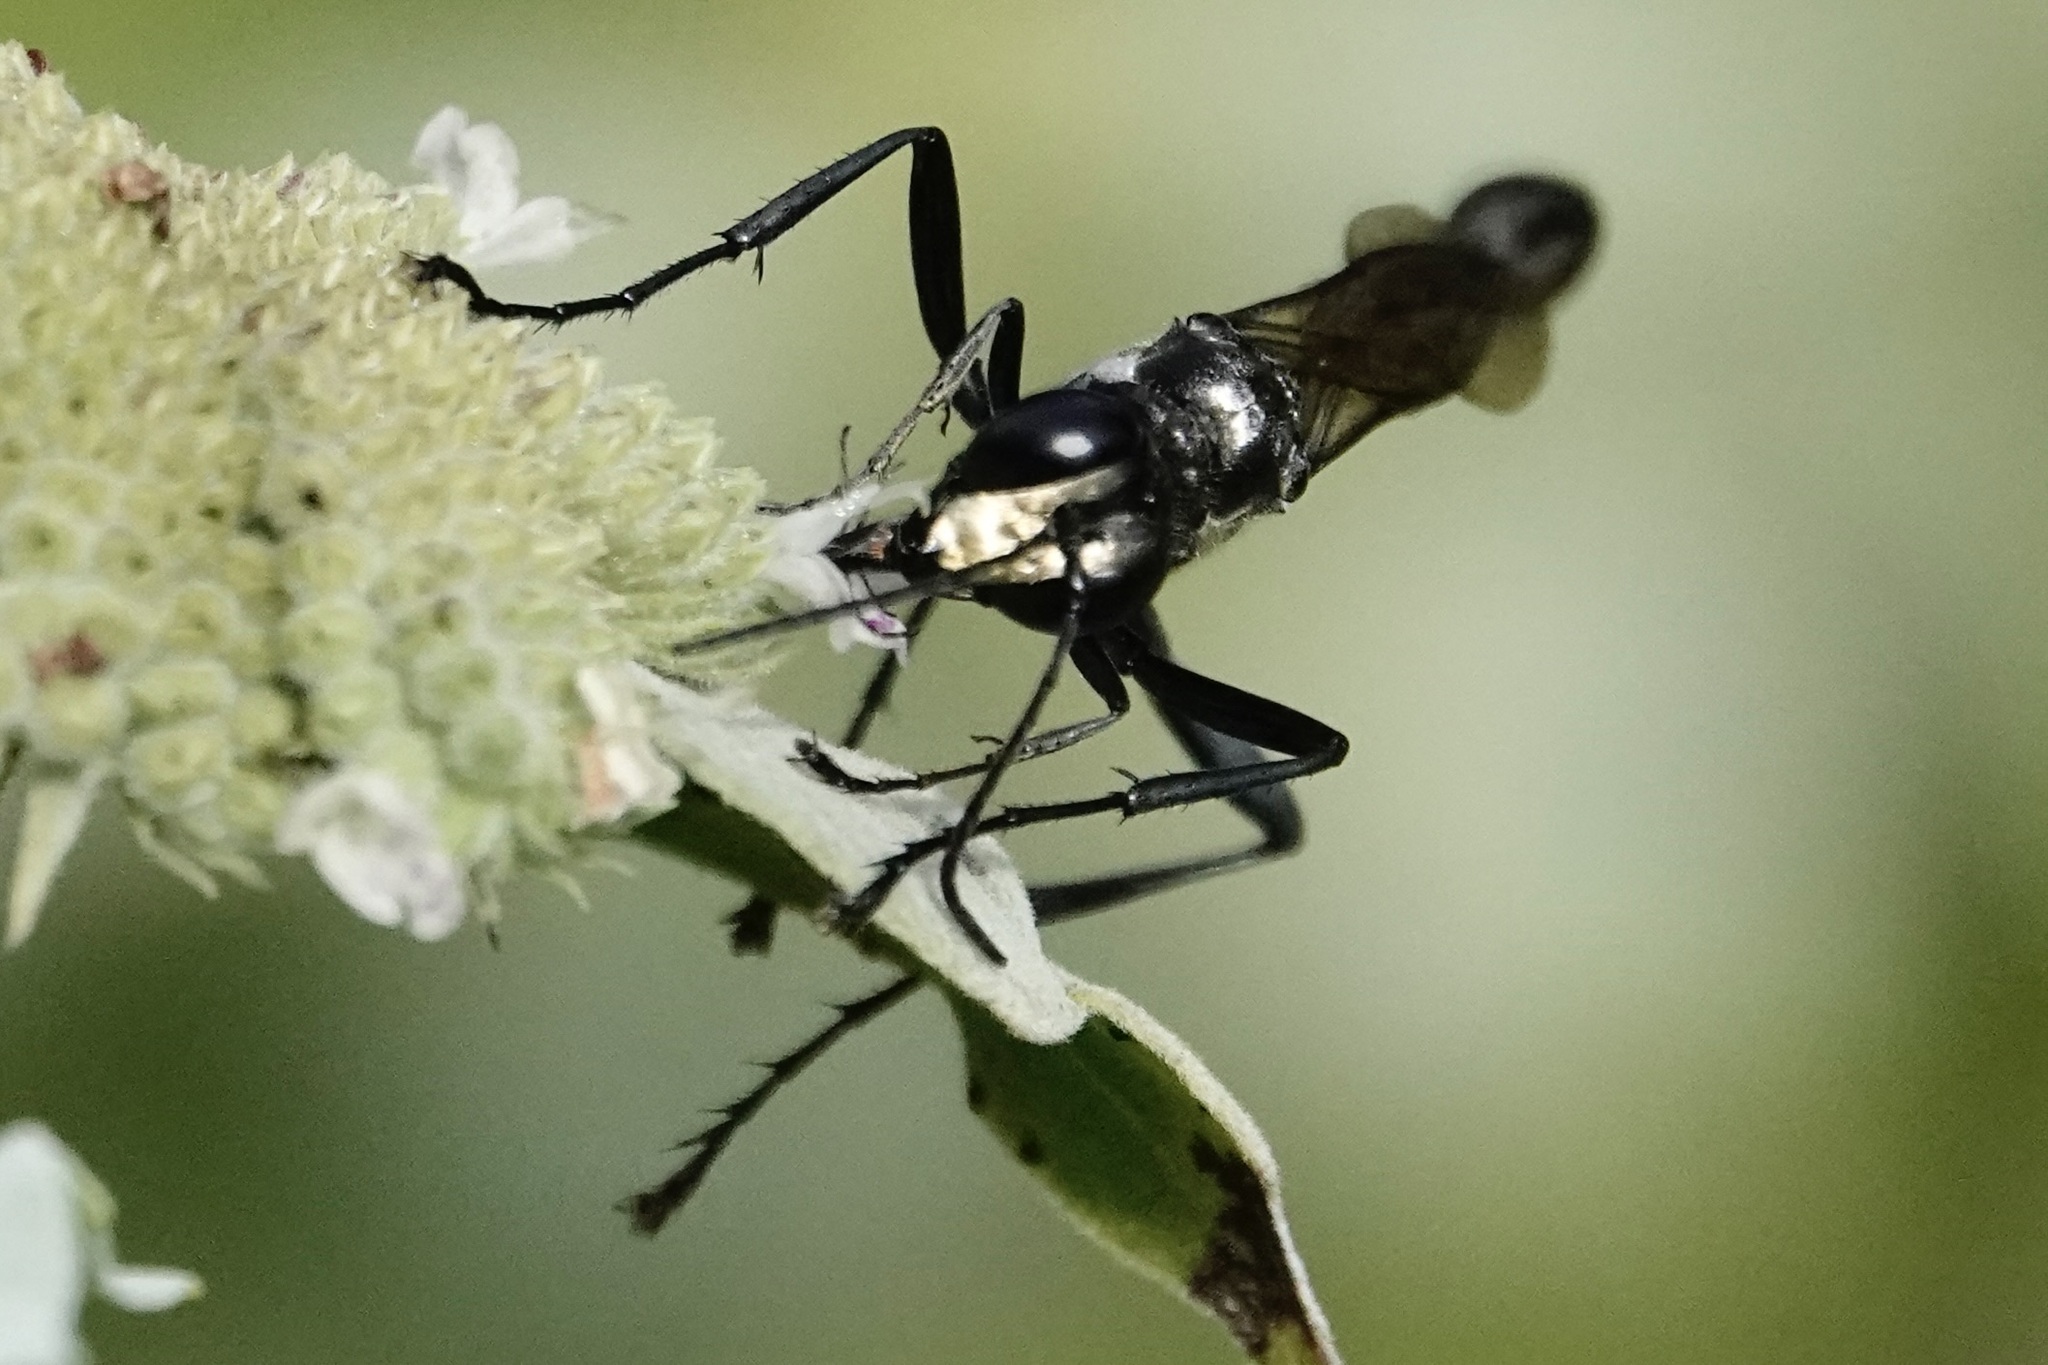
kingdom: Animalia
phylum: Arthropoda
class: Insecta
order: Hymenoptera
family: Sphecidae
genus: Eremnophila
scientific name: Eremnophila aureonotata
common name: Gold-marked thread-waisted wasp
